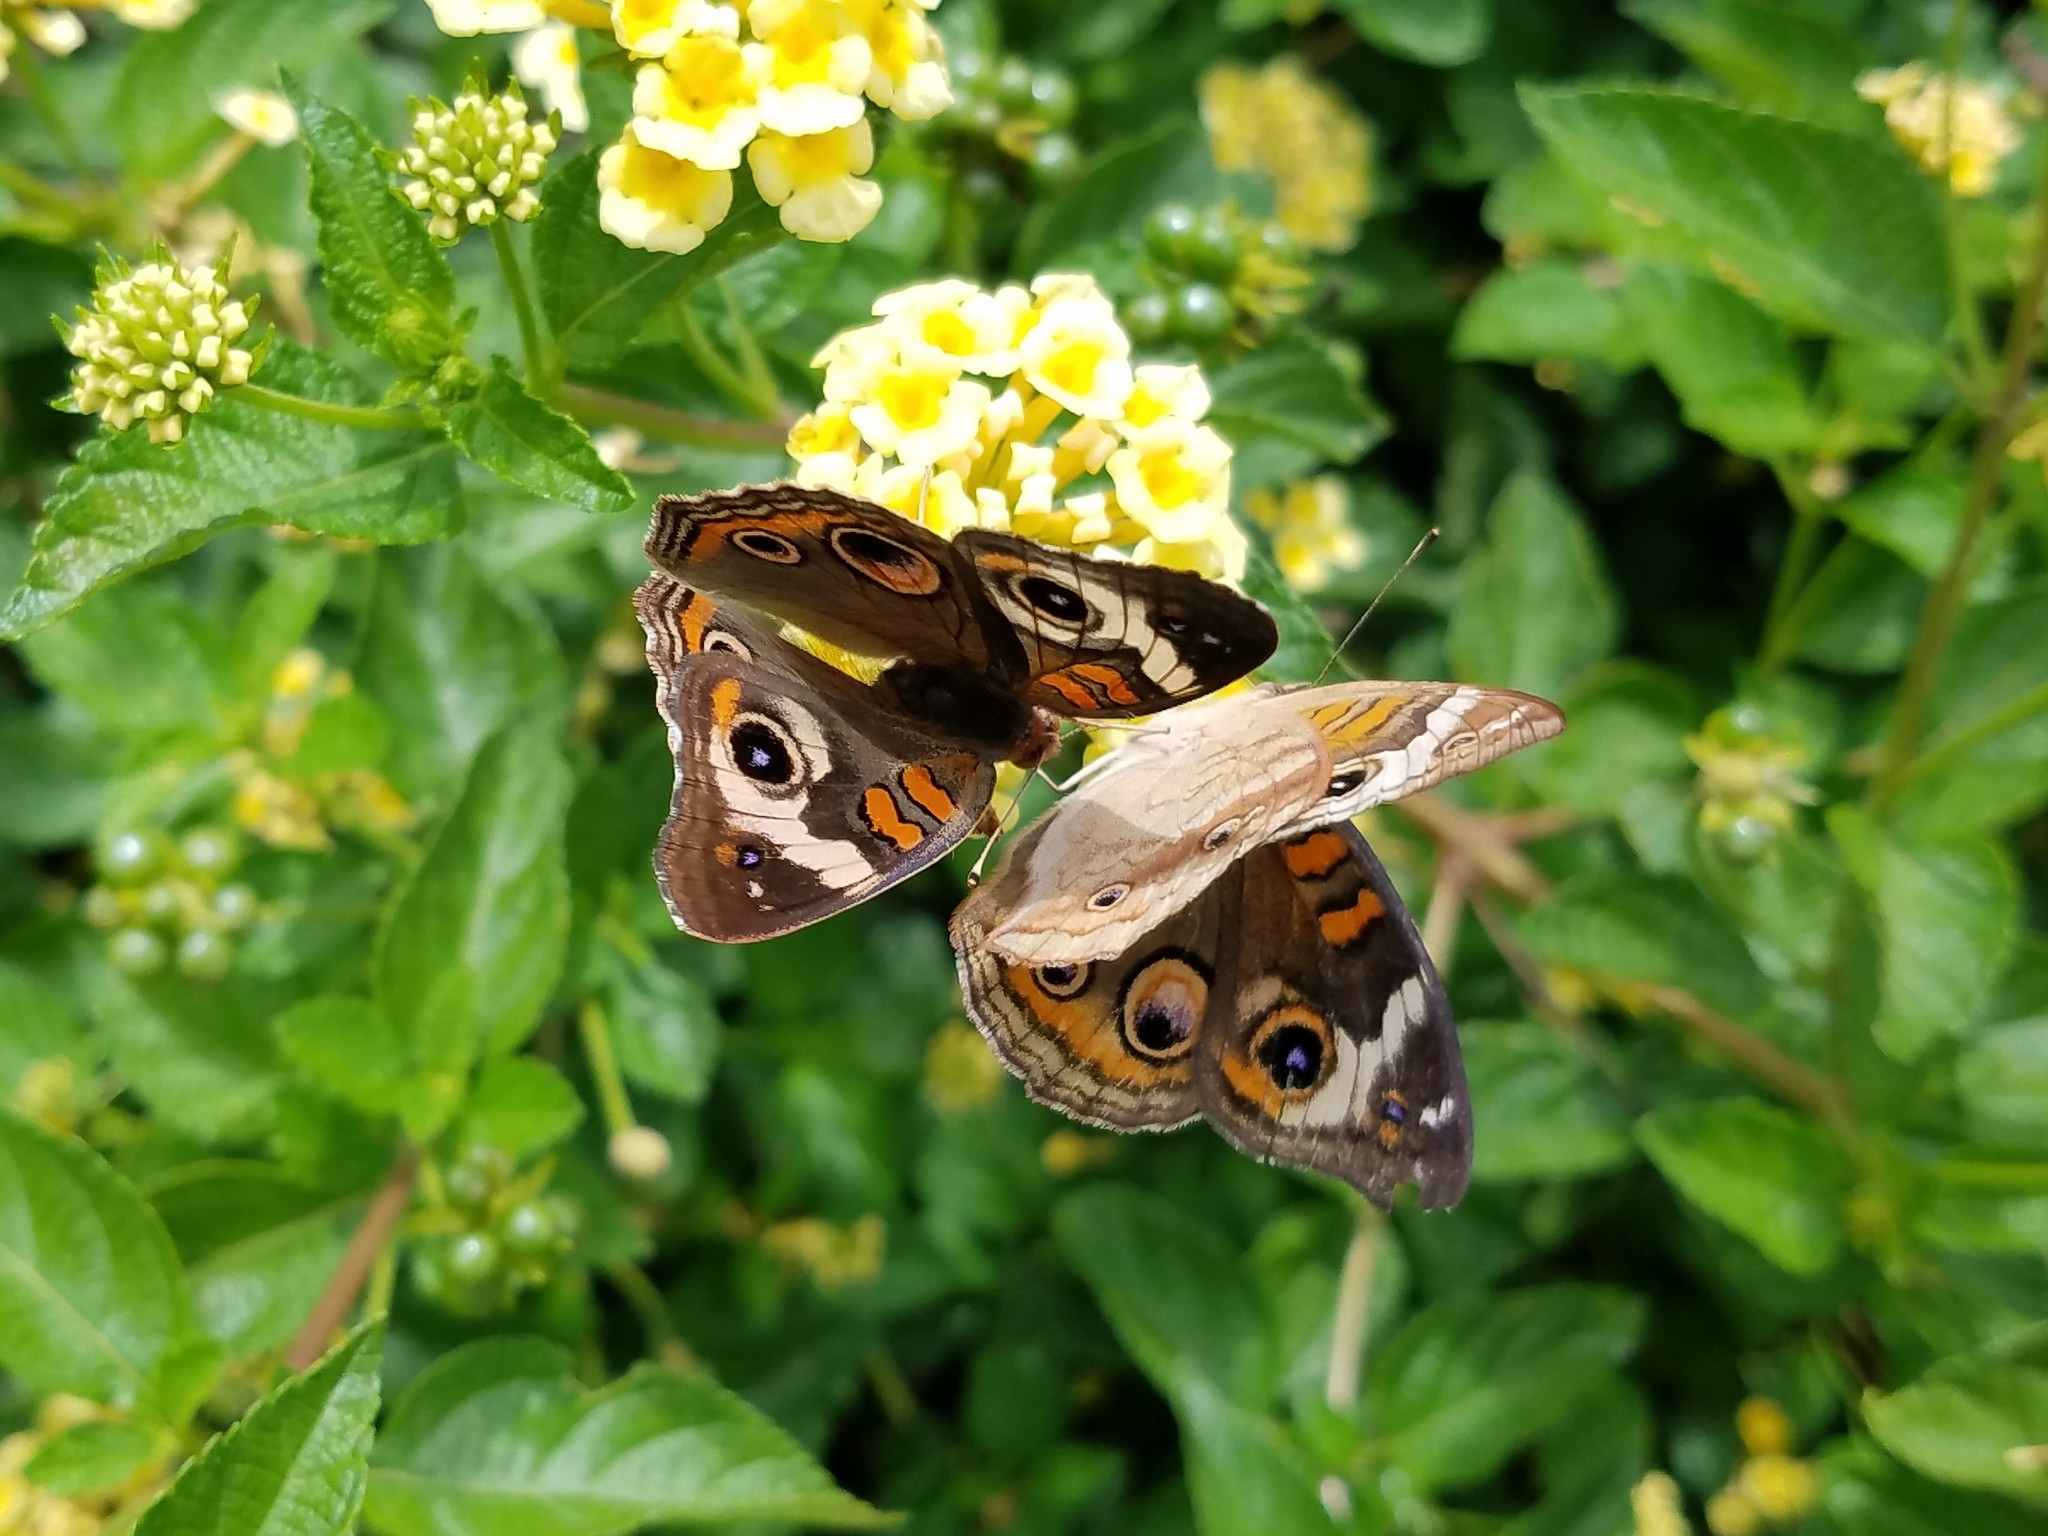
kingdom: Animalia
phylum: Arthropoda
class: Insecta
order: Lepidoptera
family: Nymphalidae
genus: Junonia
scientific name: Junonia coenia
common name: Common buckeye
